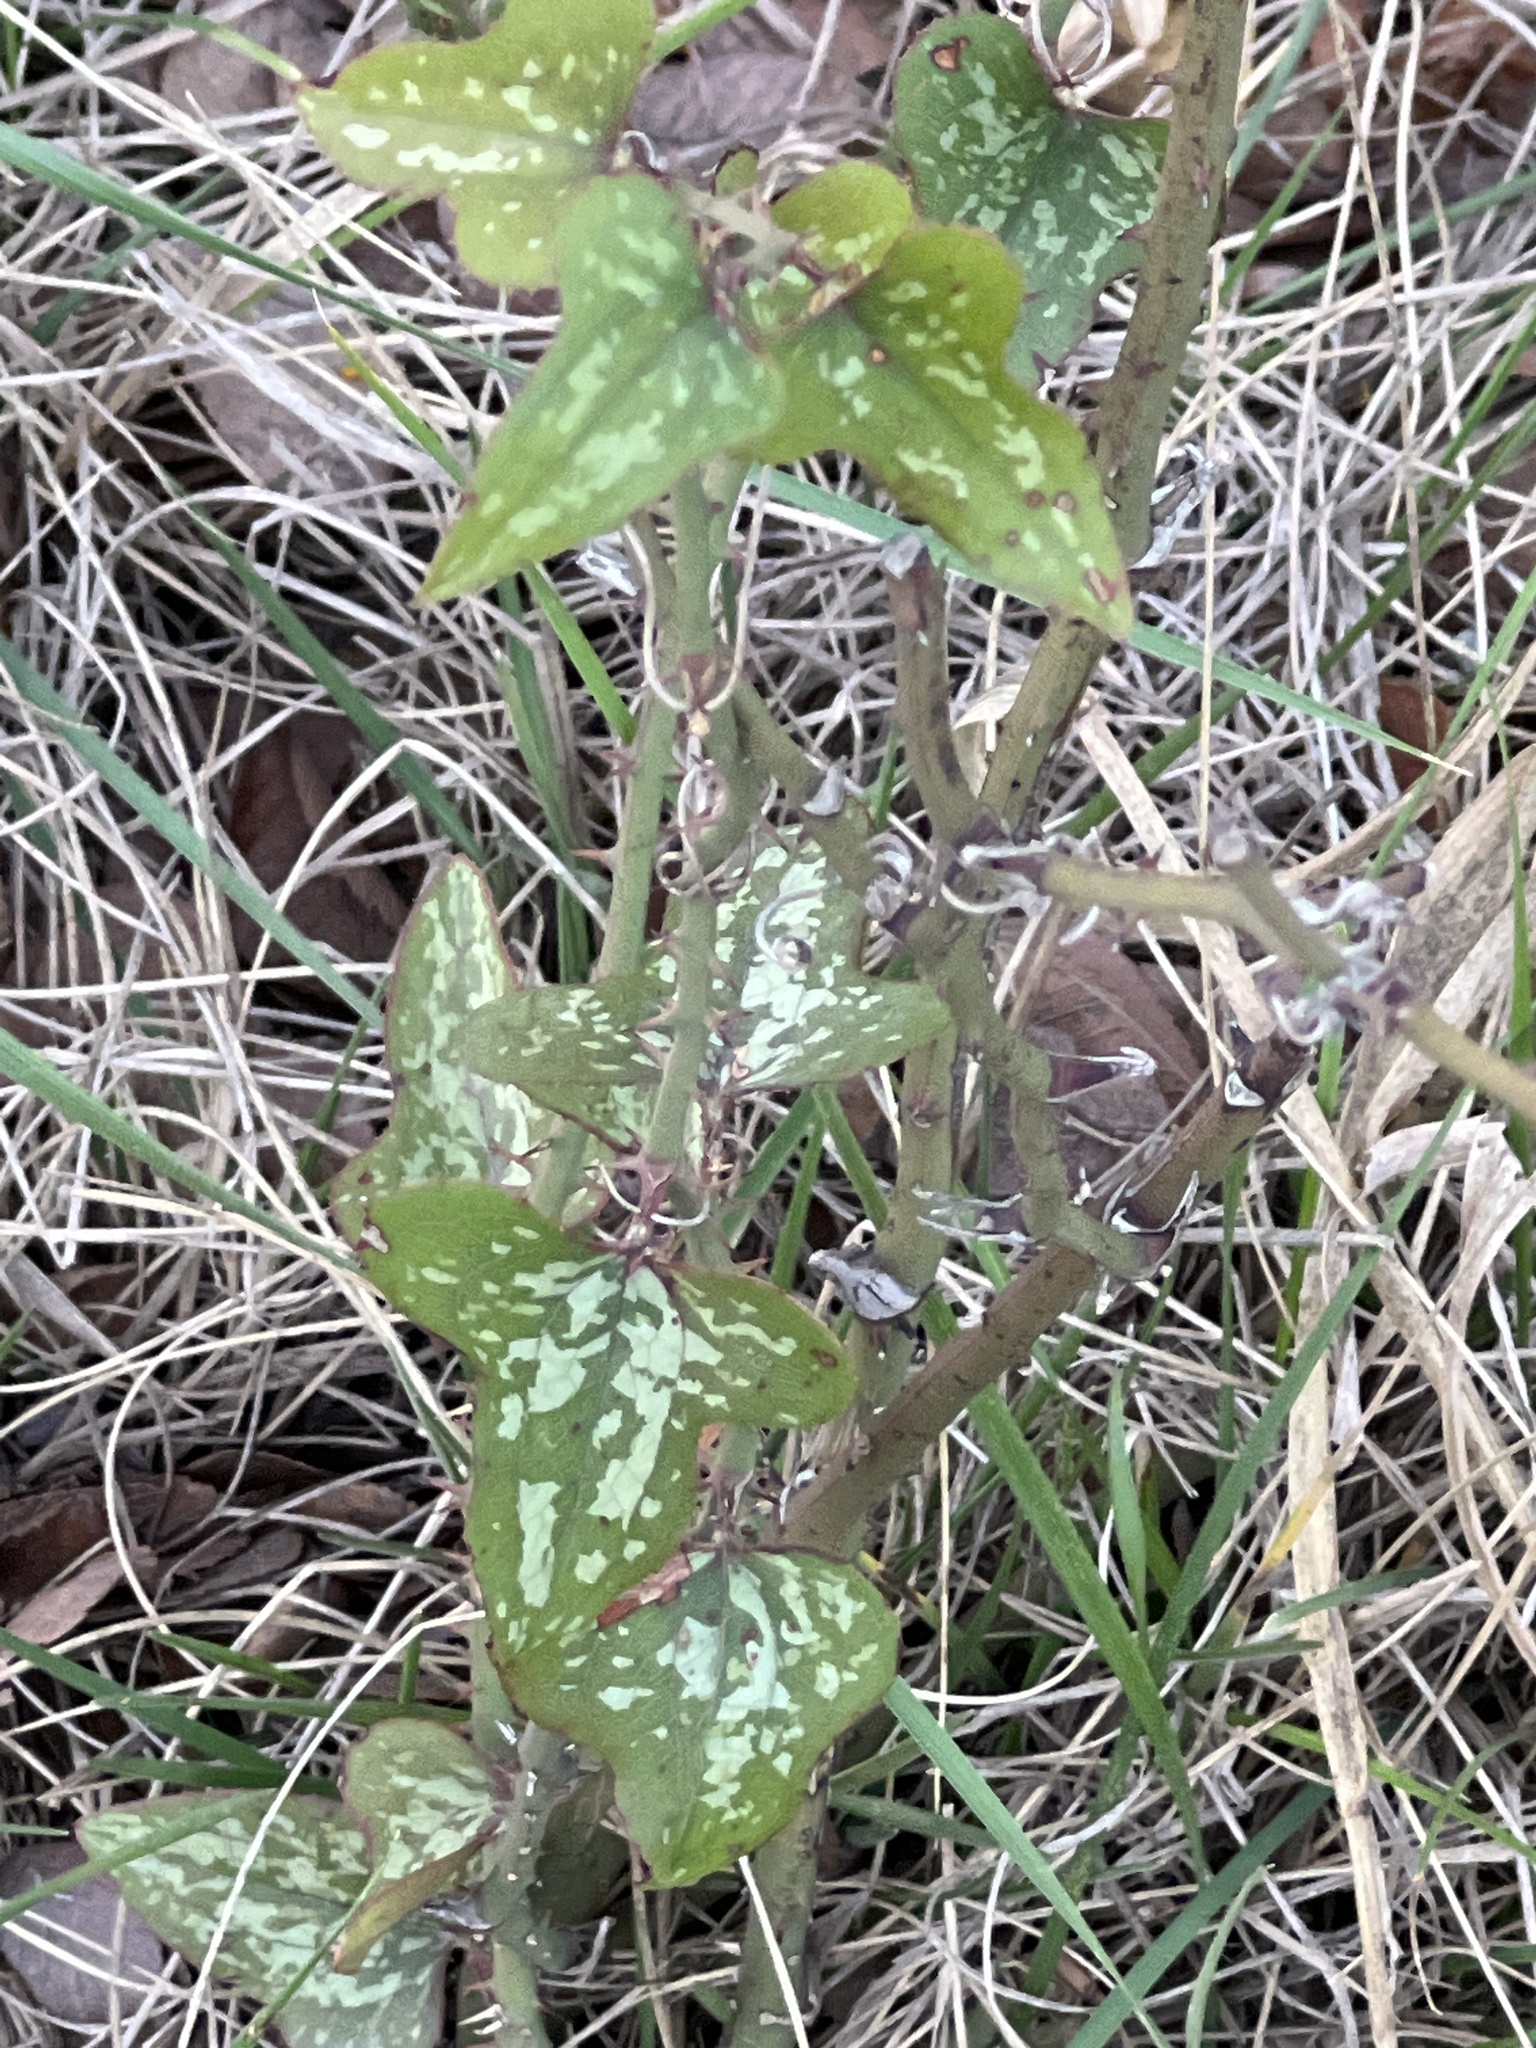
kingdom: Plantae
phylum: Tracheophyta
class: Liliopsida
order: Liliales
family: Smilacaceae
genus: Smilax
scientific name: Smilax bona-nox
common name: Catbrier
